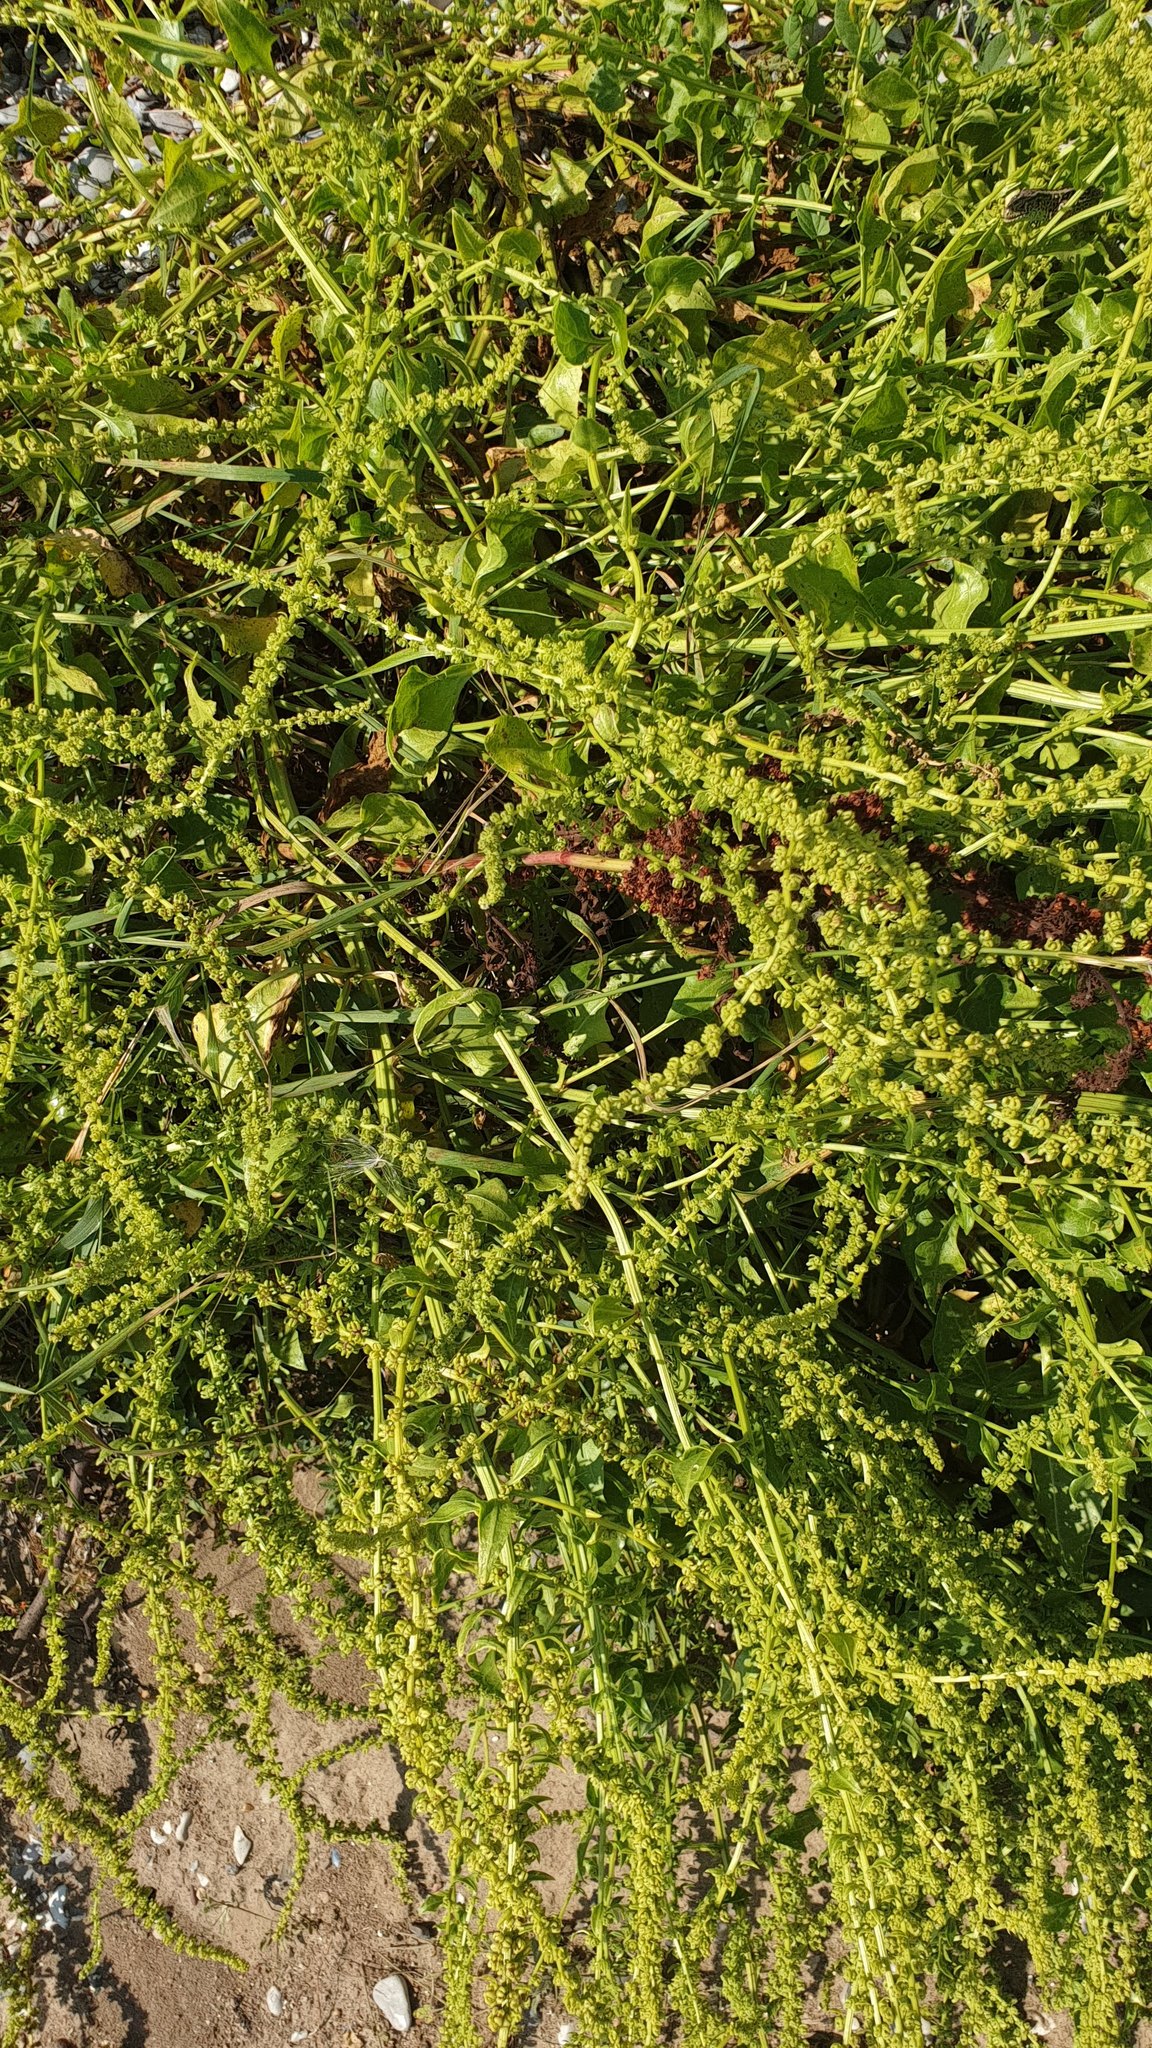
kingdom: Plantae
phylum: Tracheophyta
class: Magnoliopsida
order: Caryophyllales
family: Amaranthaceae
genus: Beta
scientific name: Beta vulgaris
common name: Beet
